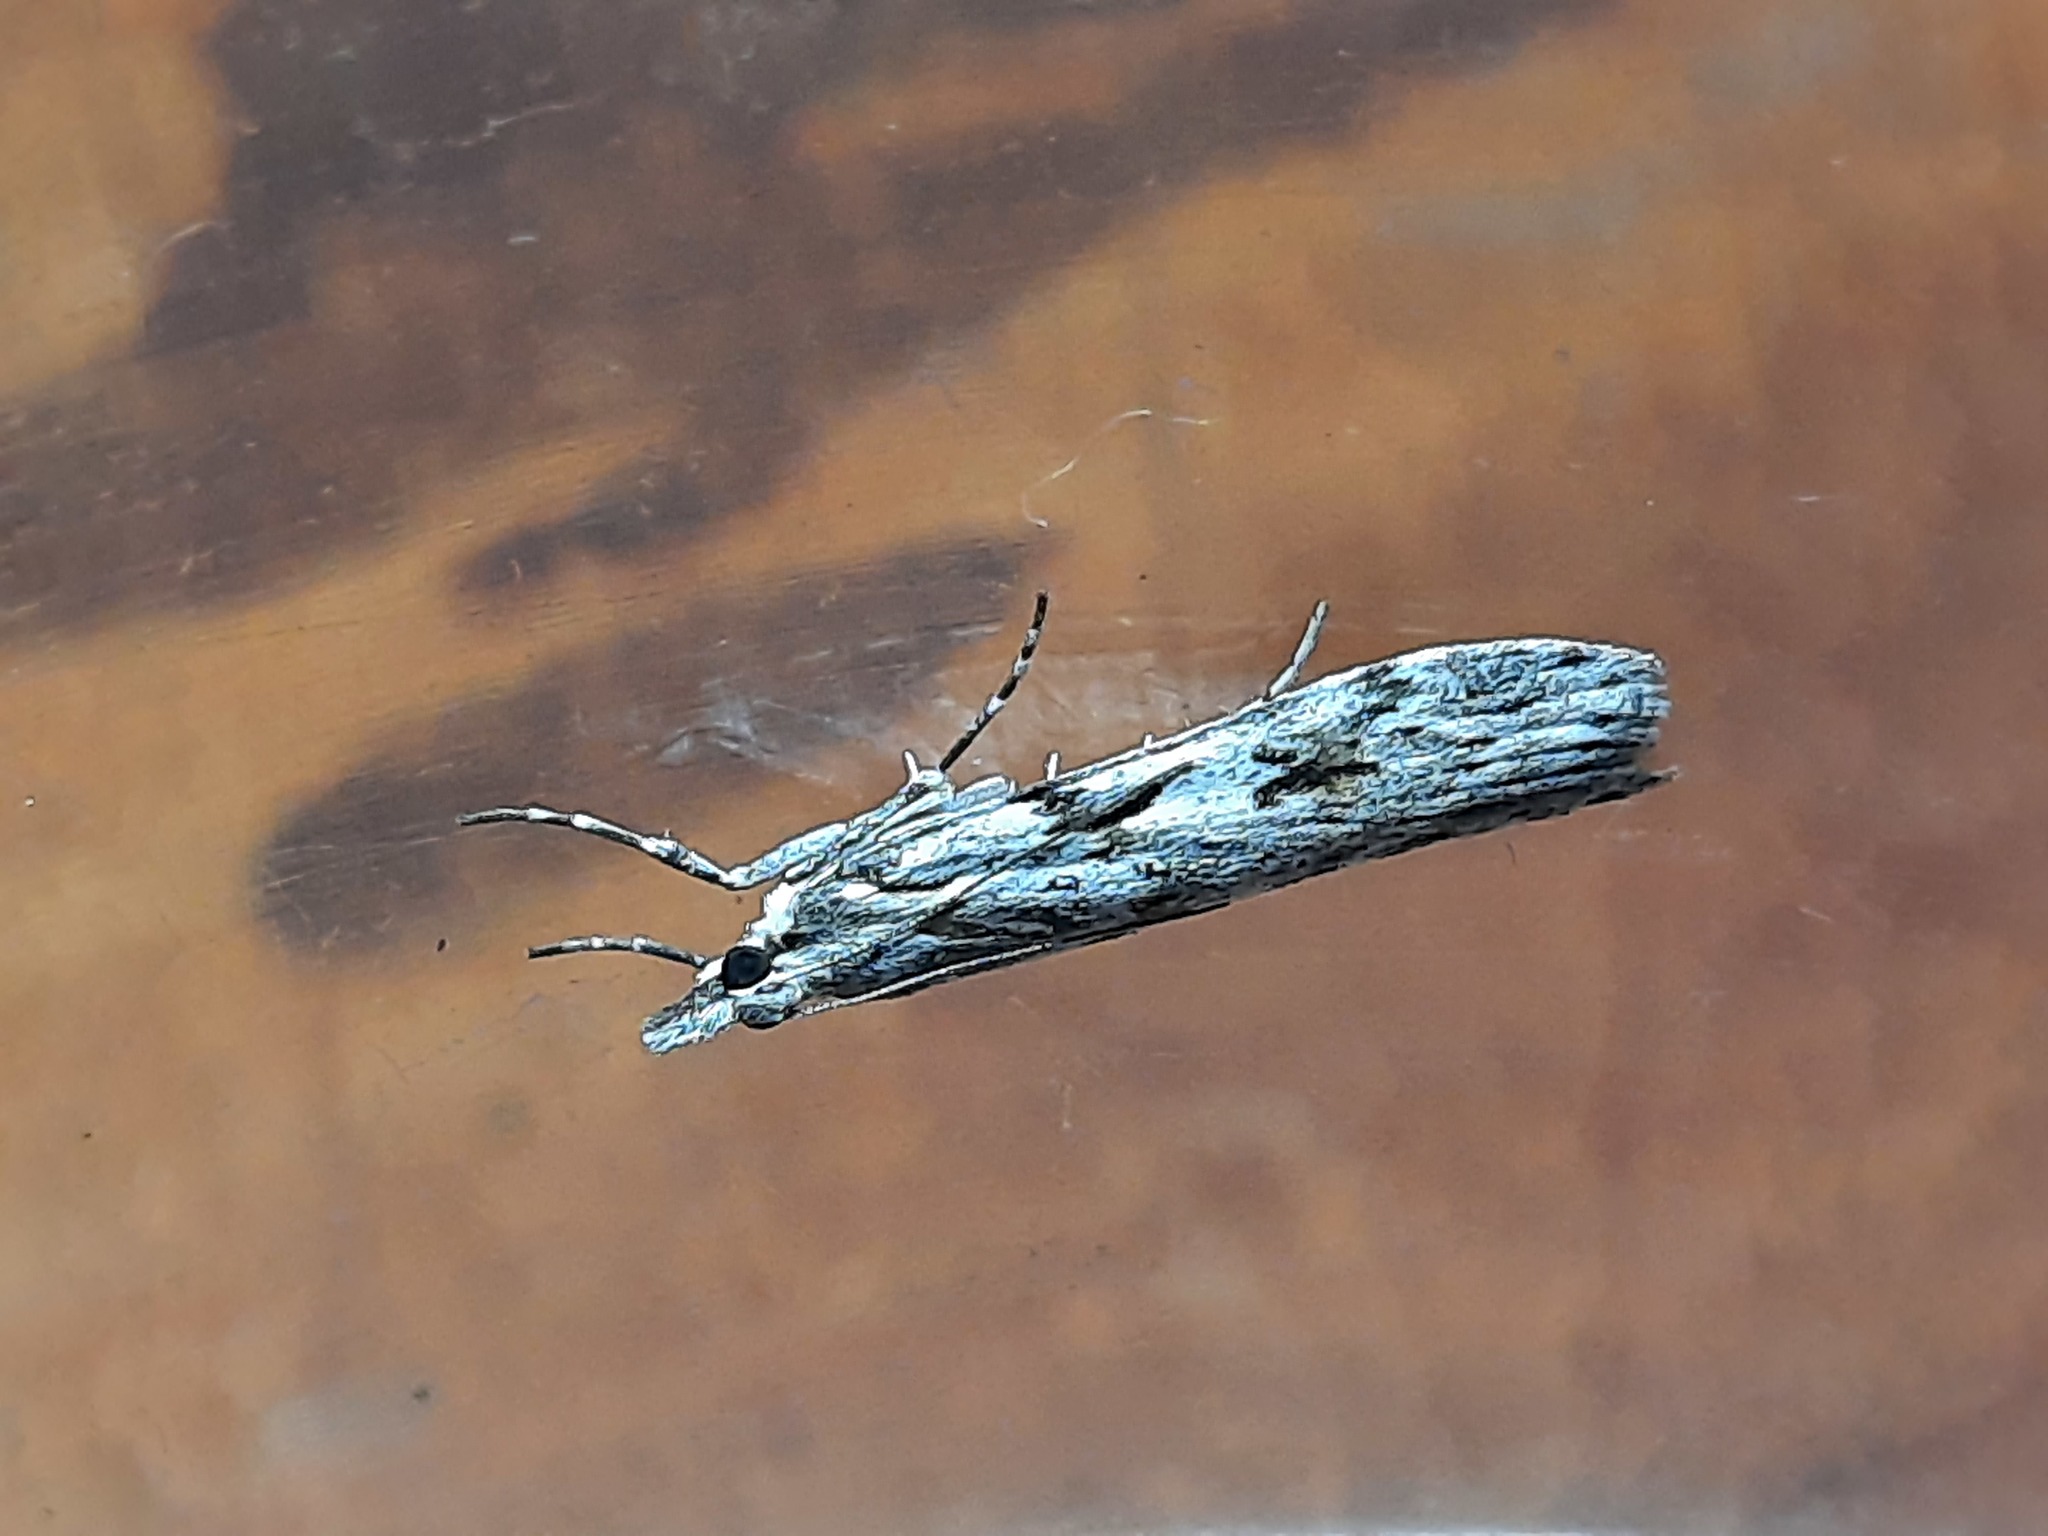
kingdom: Animalia
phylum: Arthropoda
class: Insecta
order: Lepidoptera
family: Crambidae
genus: Scoparia
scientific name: Scoparia halopis
